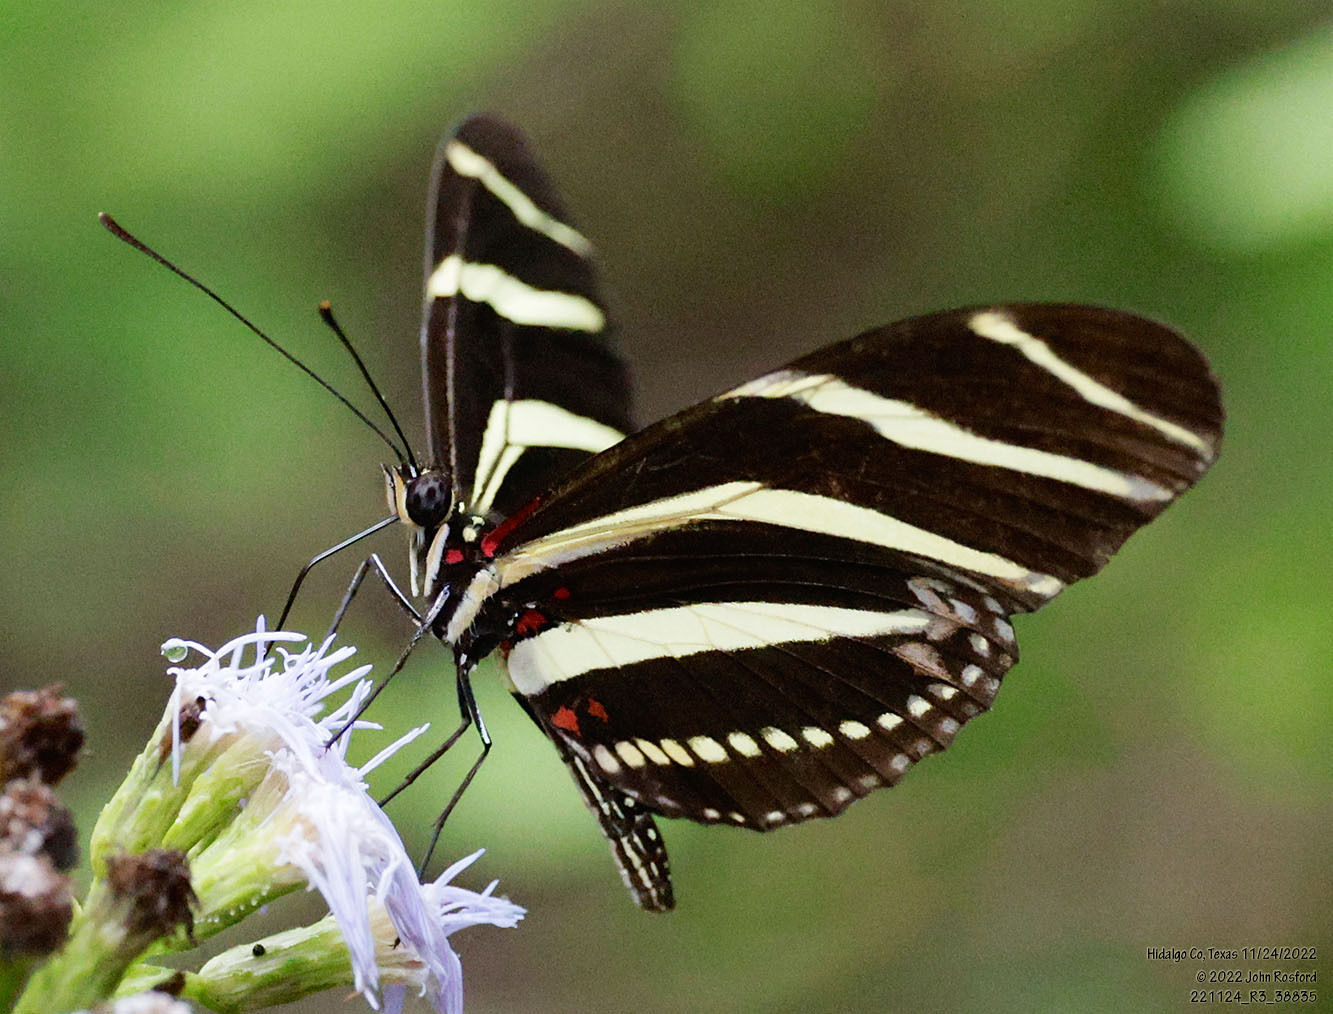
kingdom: Animalia
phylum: Arthropoda
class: Insecta
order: Lepidoptera
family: Nymphalidae
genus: Heliconius
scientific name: Heliconius charithonia
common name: Zebra long wing
